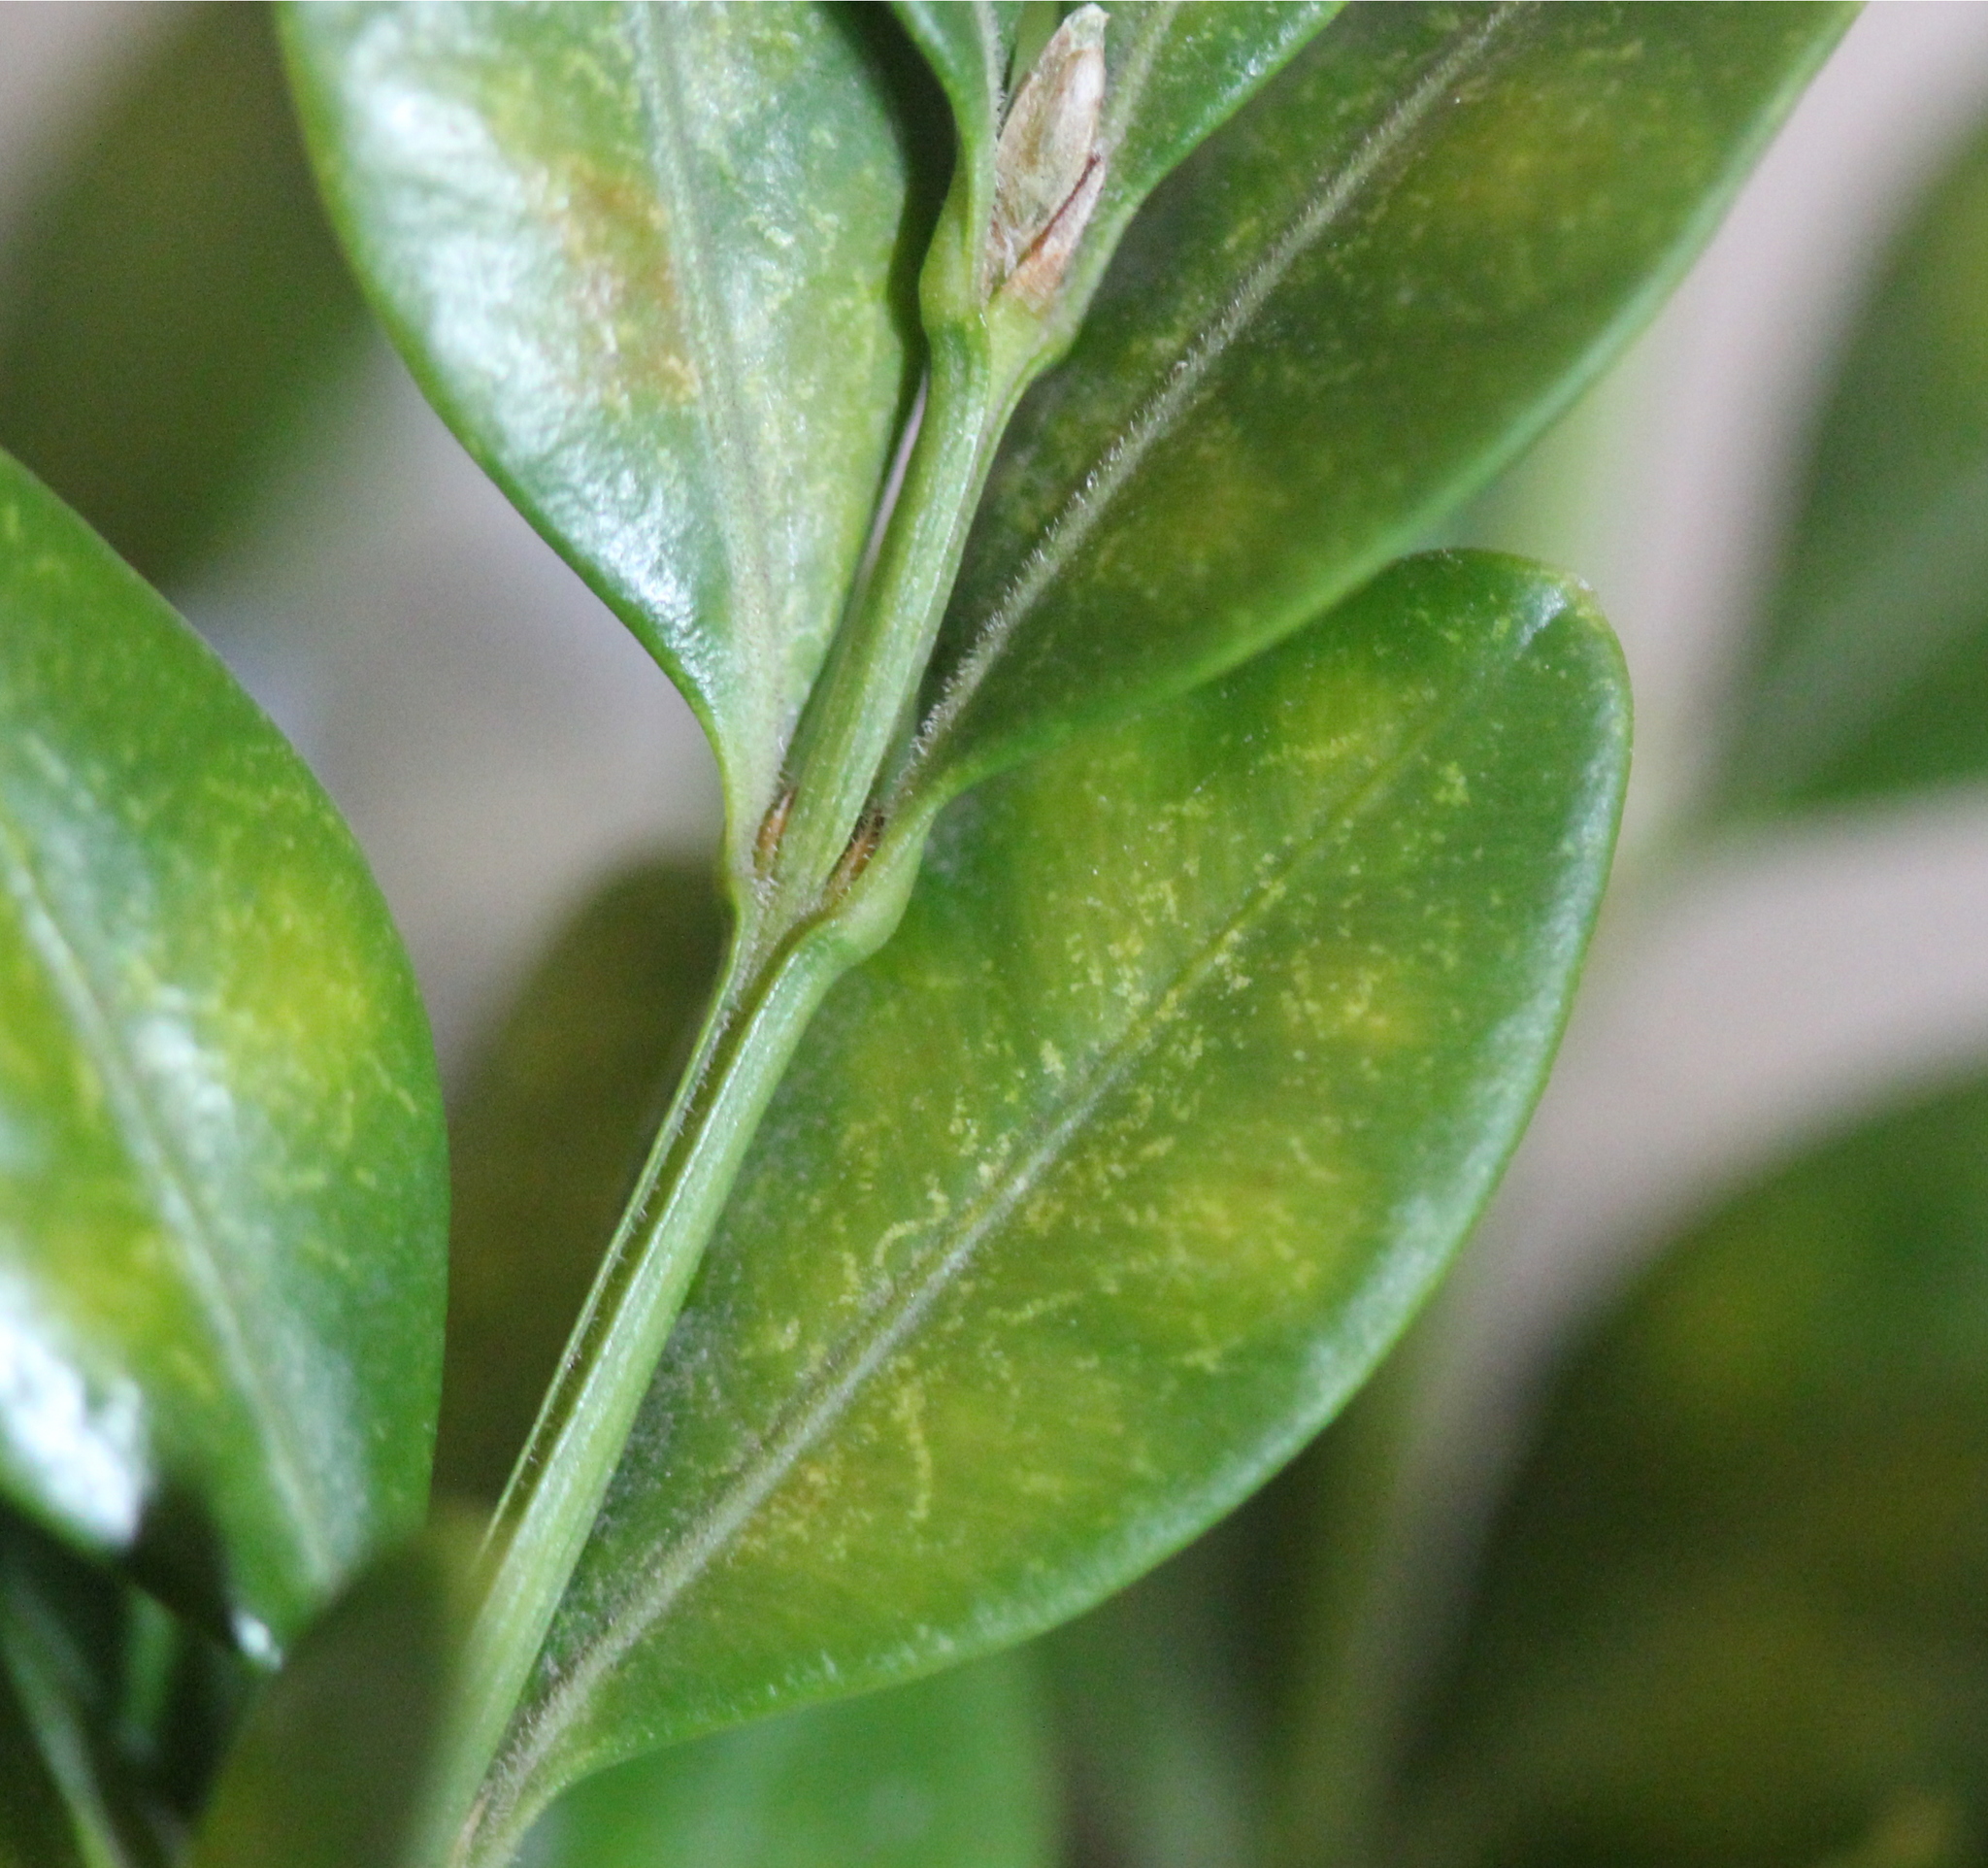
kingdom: Animalia
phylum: Arthropoda
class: Insecta
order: Diptera
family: Cecidomyiidae
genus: Monarthropalpus
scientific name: Monarthropalpus flavus
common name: Boxwood leafminer
